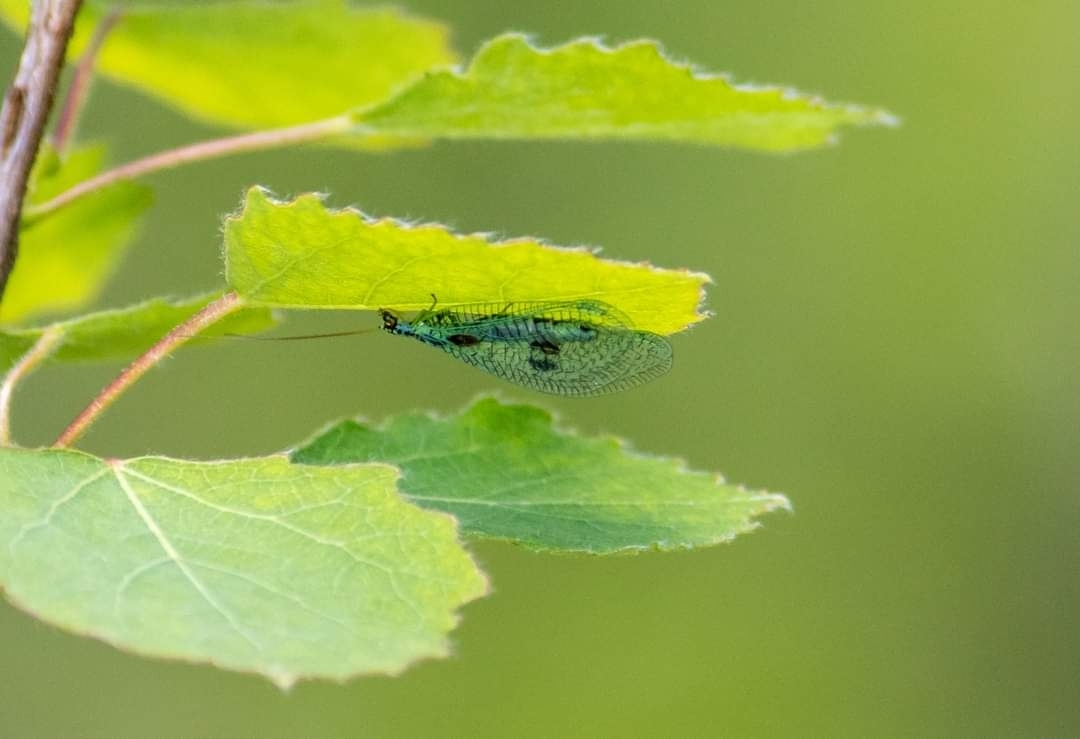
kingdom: Animalia
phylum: Arthropoda
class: Insecta
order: Neuroptera
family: Chrysopidae
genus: Chrysopa
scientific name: Chrysopa perla
